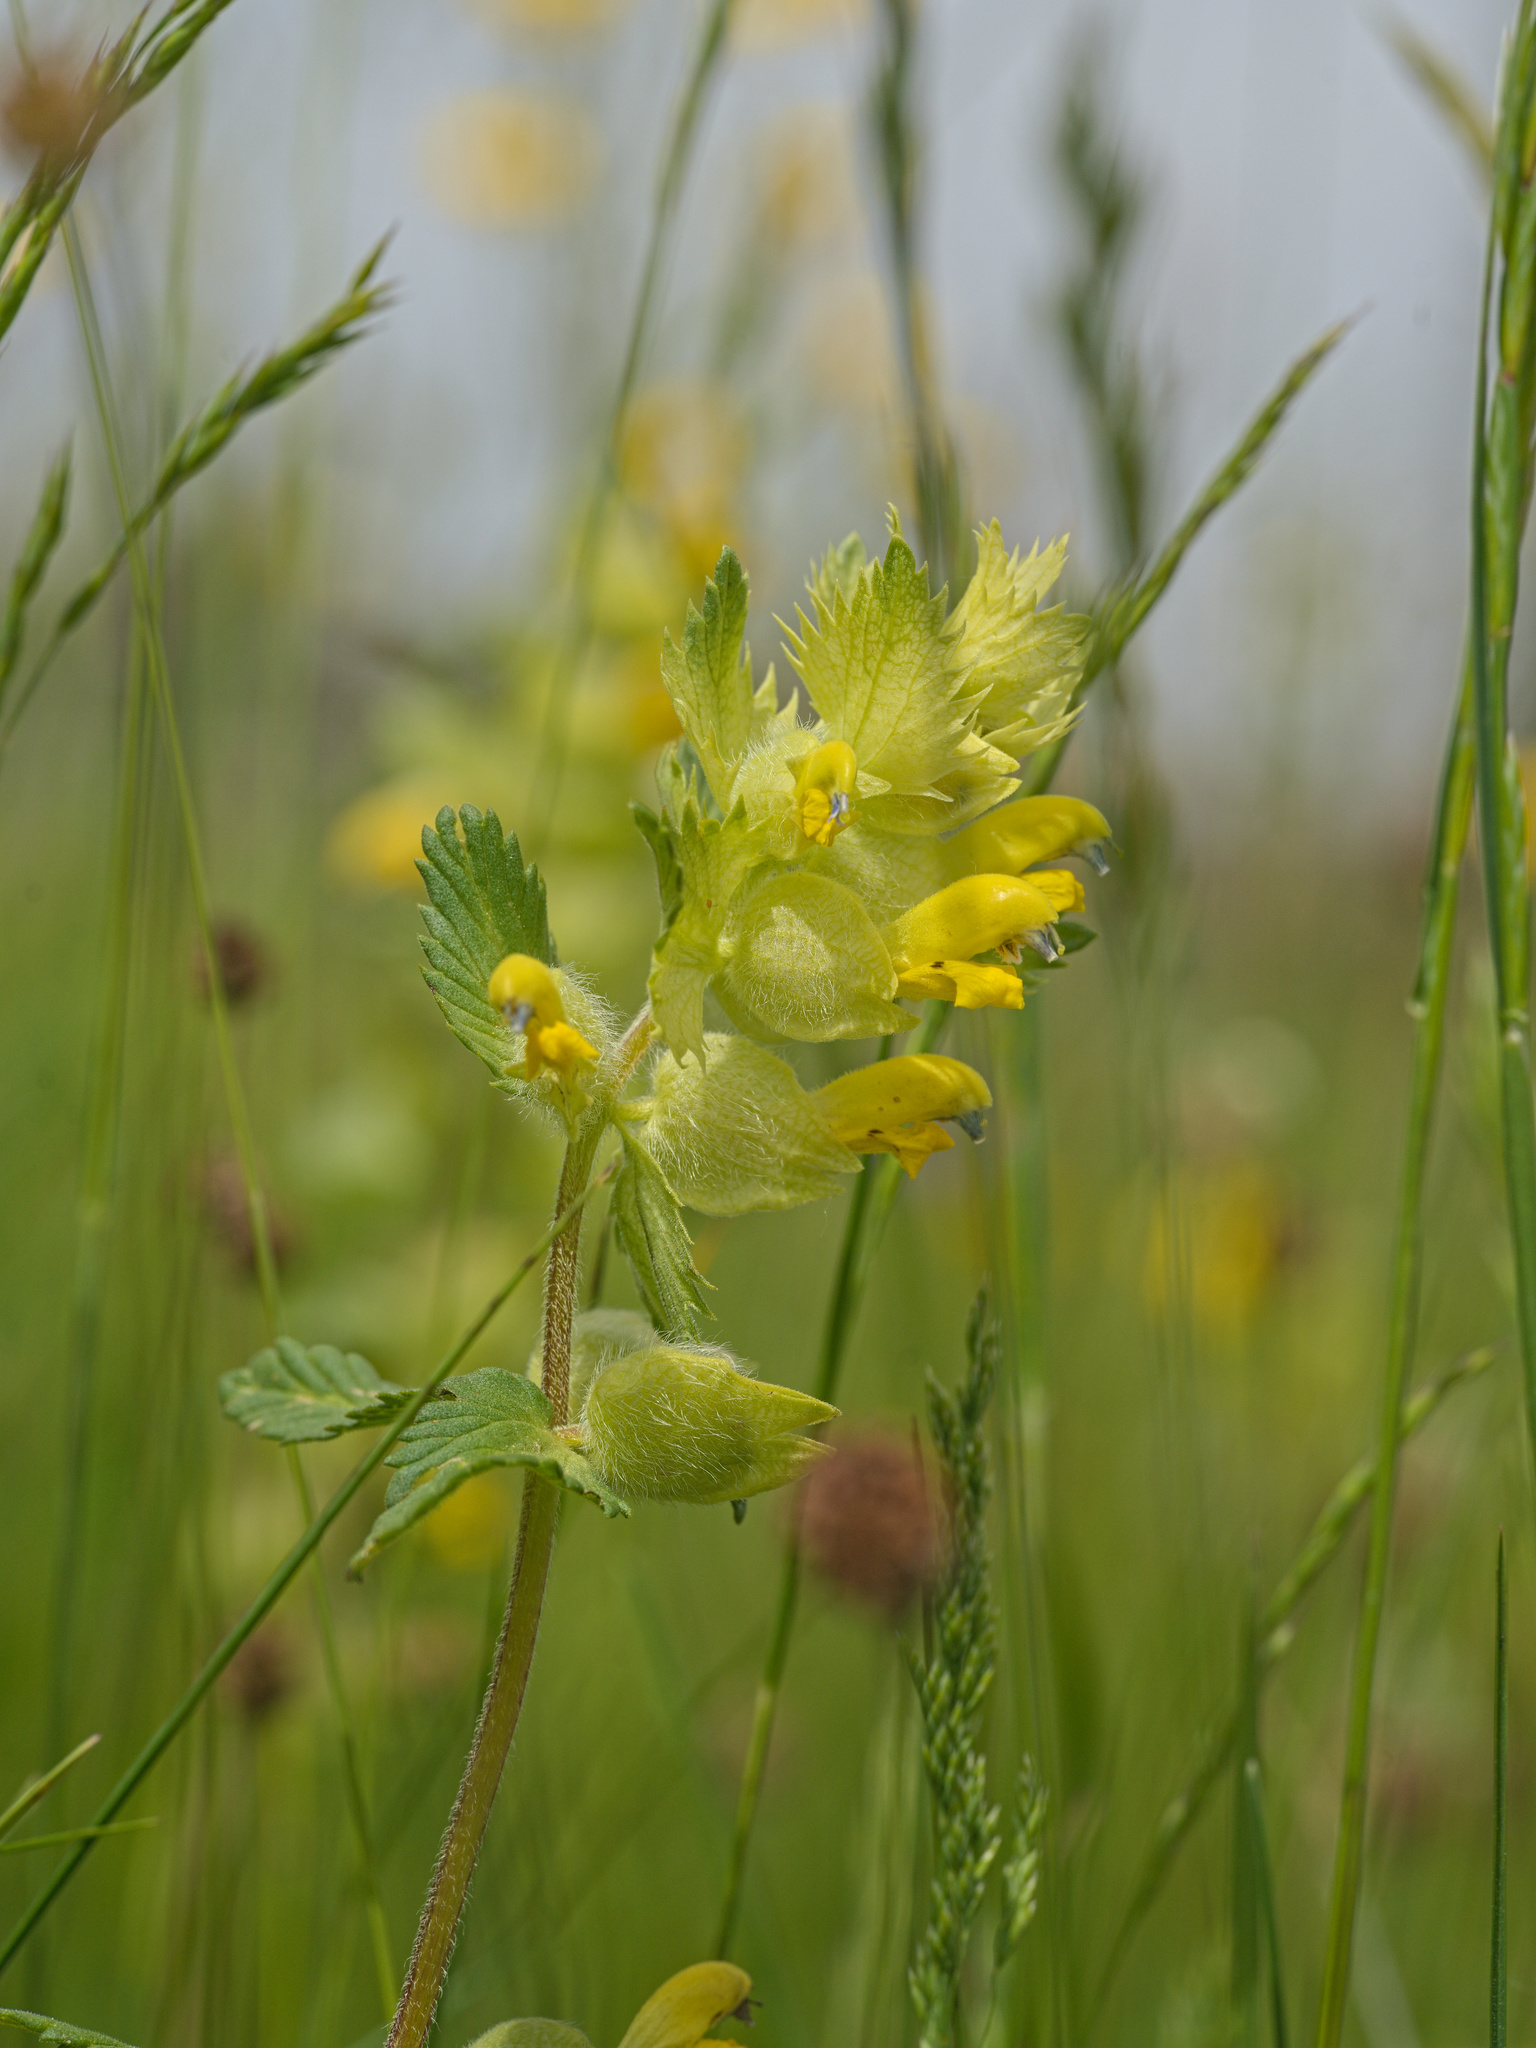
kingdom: Plantae
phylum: Tracheophyta
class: Magnoliopsida
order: Lamiales
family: Orobanchaceae
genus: Rhinanthus
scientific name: Rhinanthus alectorolophus
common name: Greater yellow-rattle
